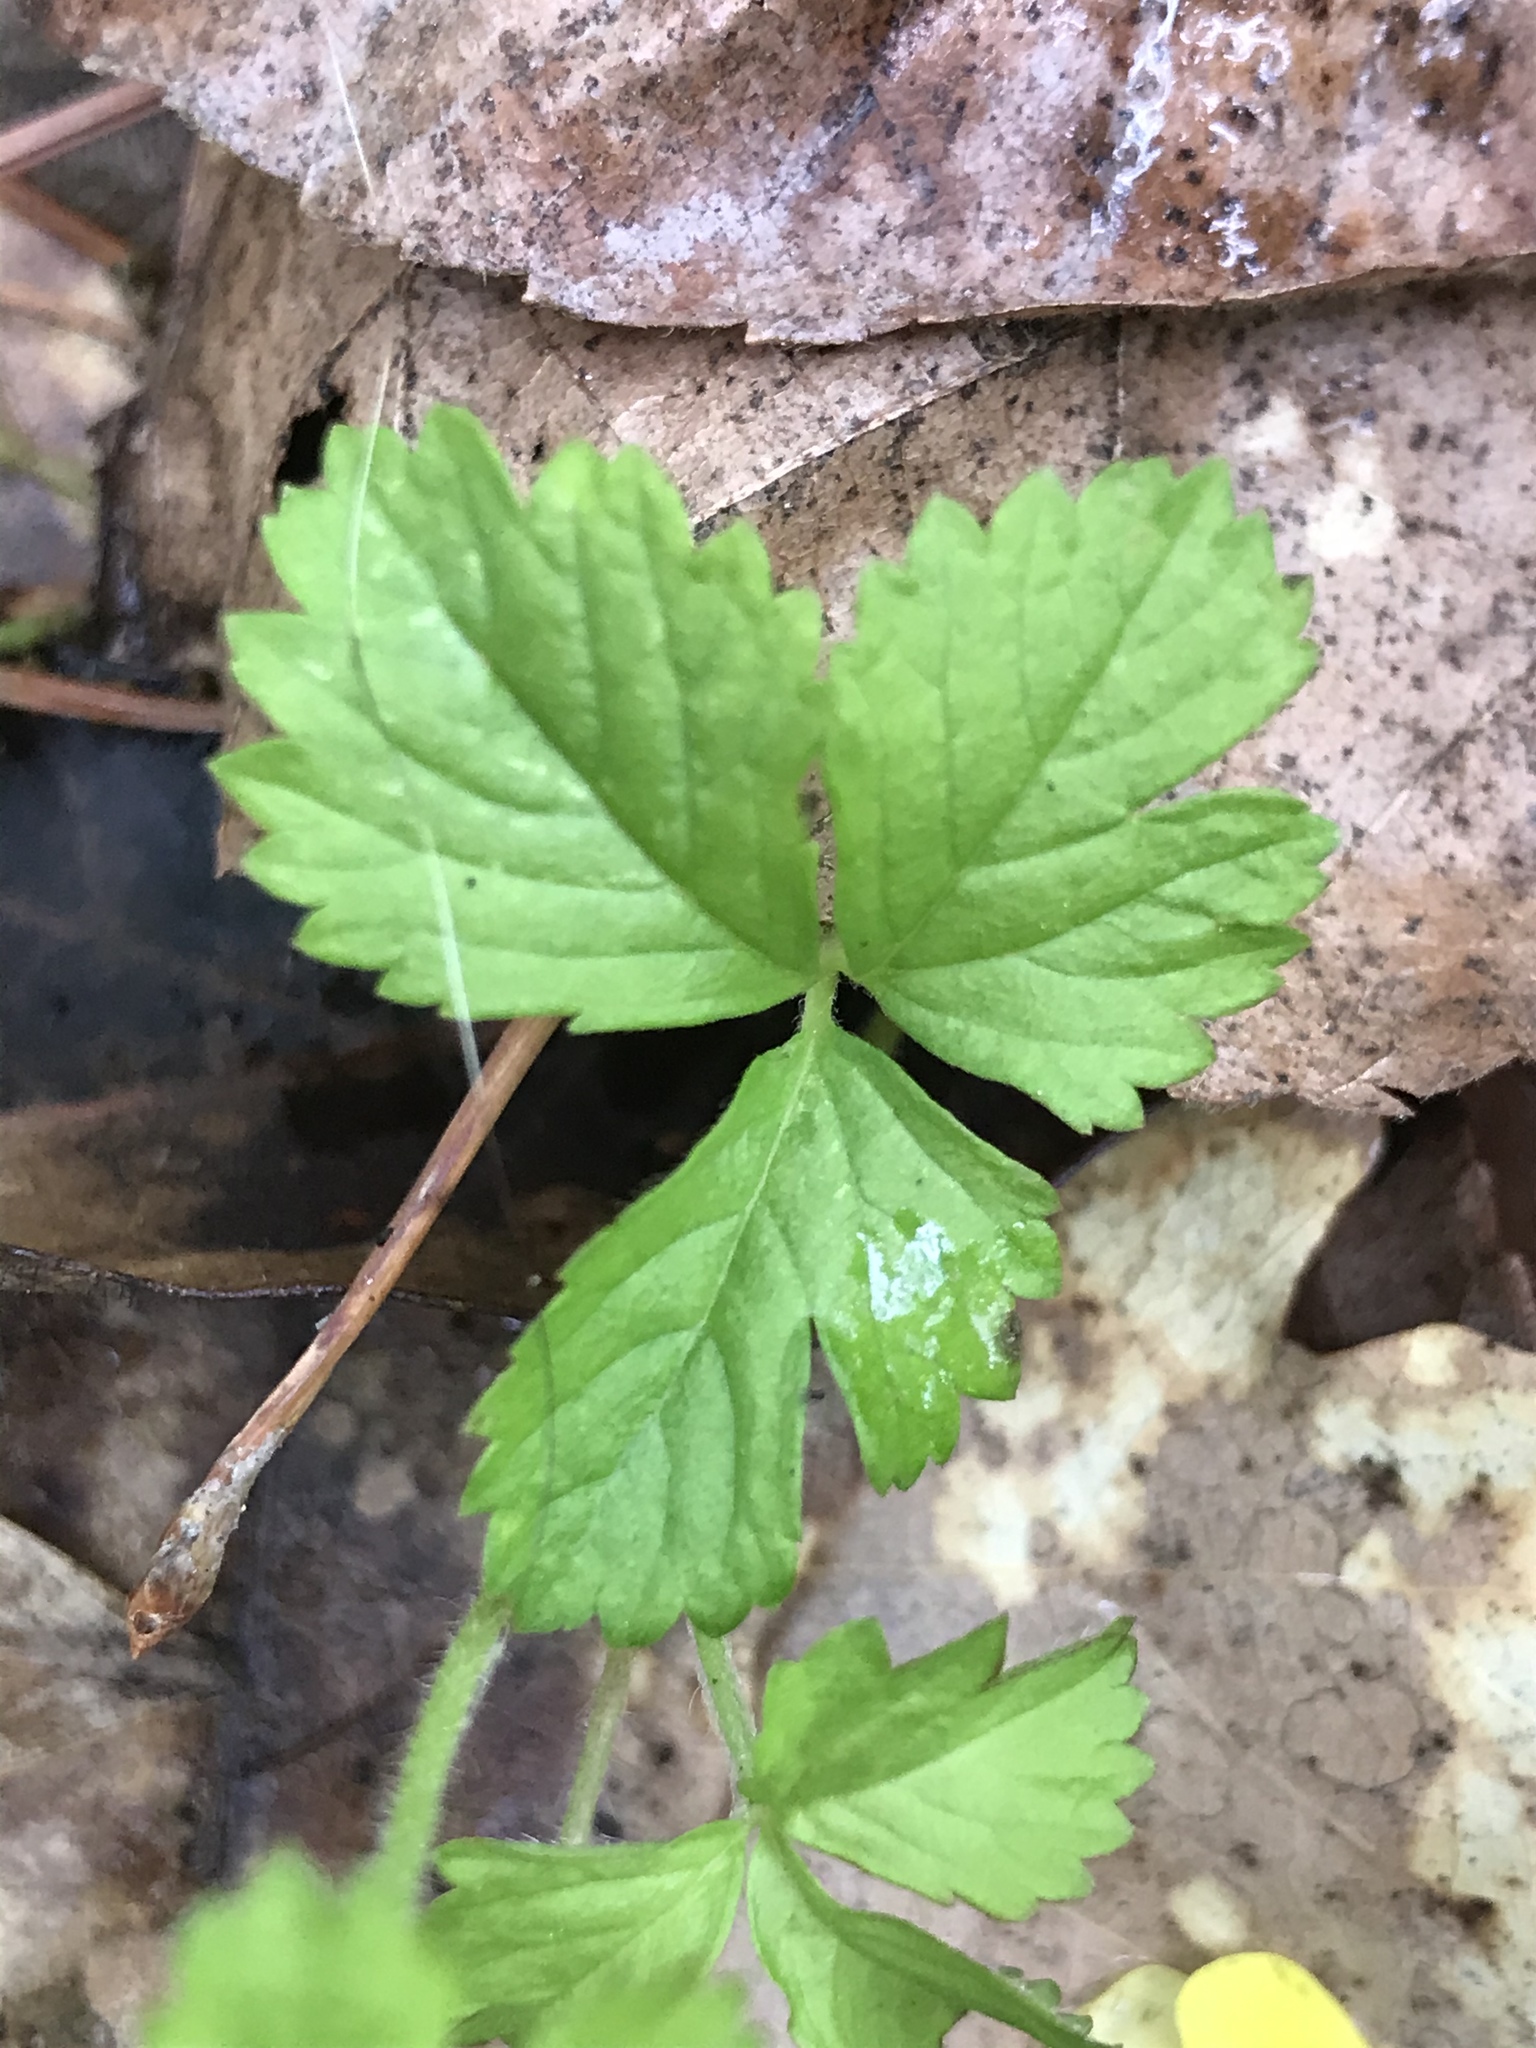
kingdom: Plantae
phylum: Tracheophyta
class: Magnoliopsida
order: Rosales
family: Rosaceae
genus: Potentilla
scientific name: Potentilla indica
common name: Yellow-flowered strawberry
